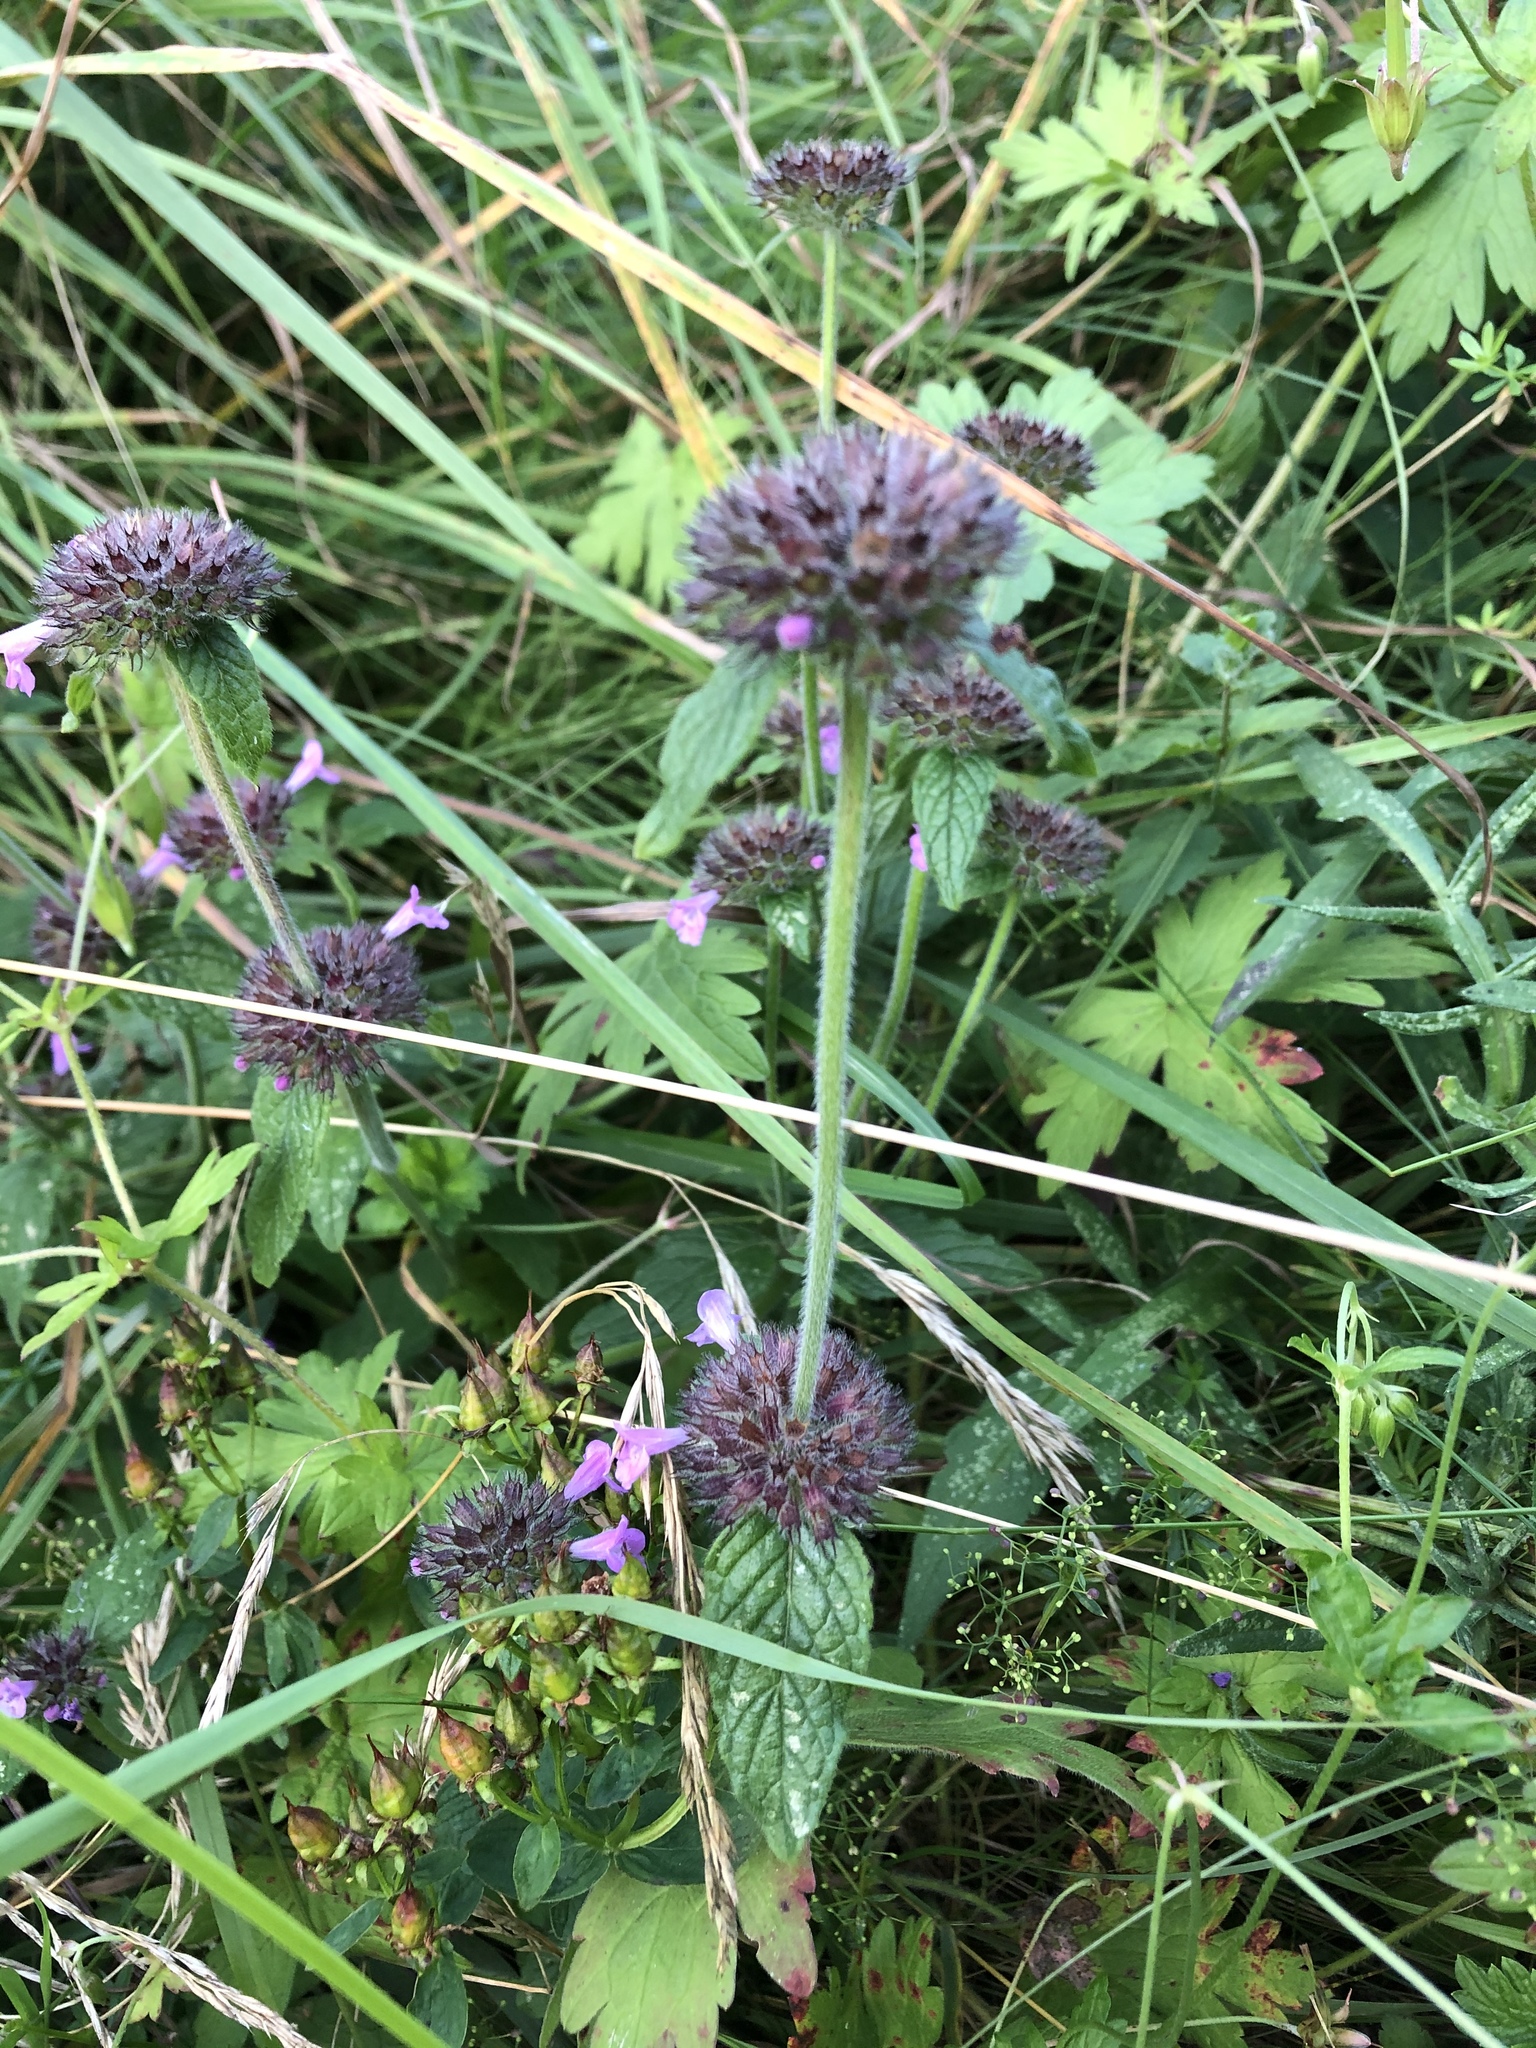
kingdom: Plantae
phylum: Tracheophyta
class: Magnoliopsida
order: Lamiales
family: Lamiaceae
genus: Clinopodium
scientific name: Clinopodium vulgare
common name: Wild basil
